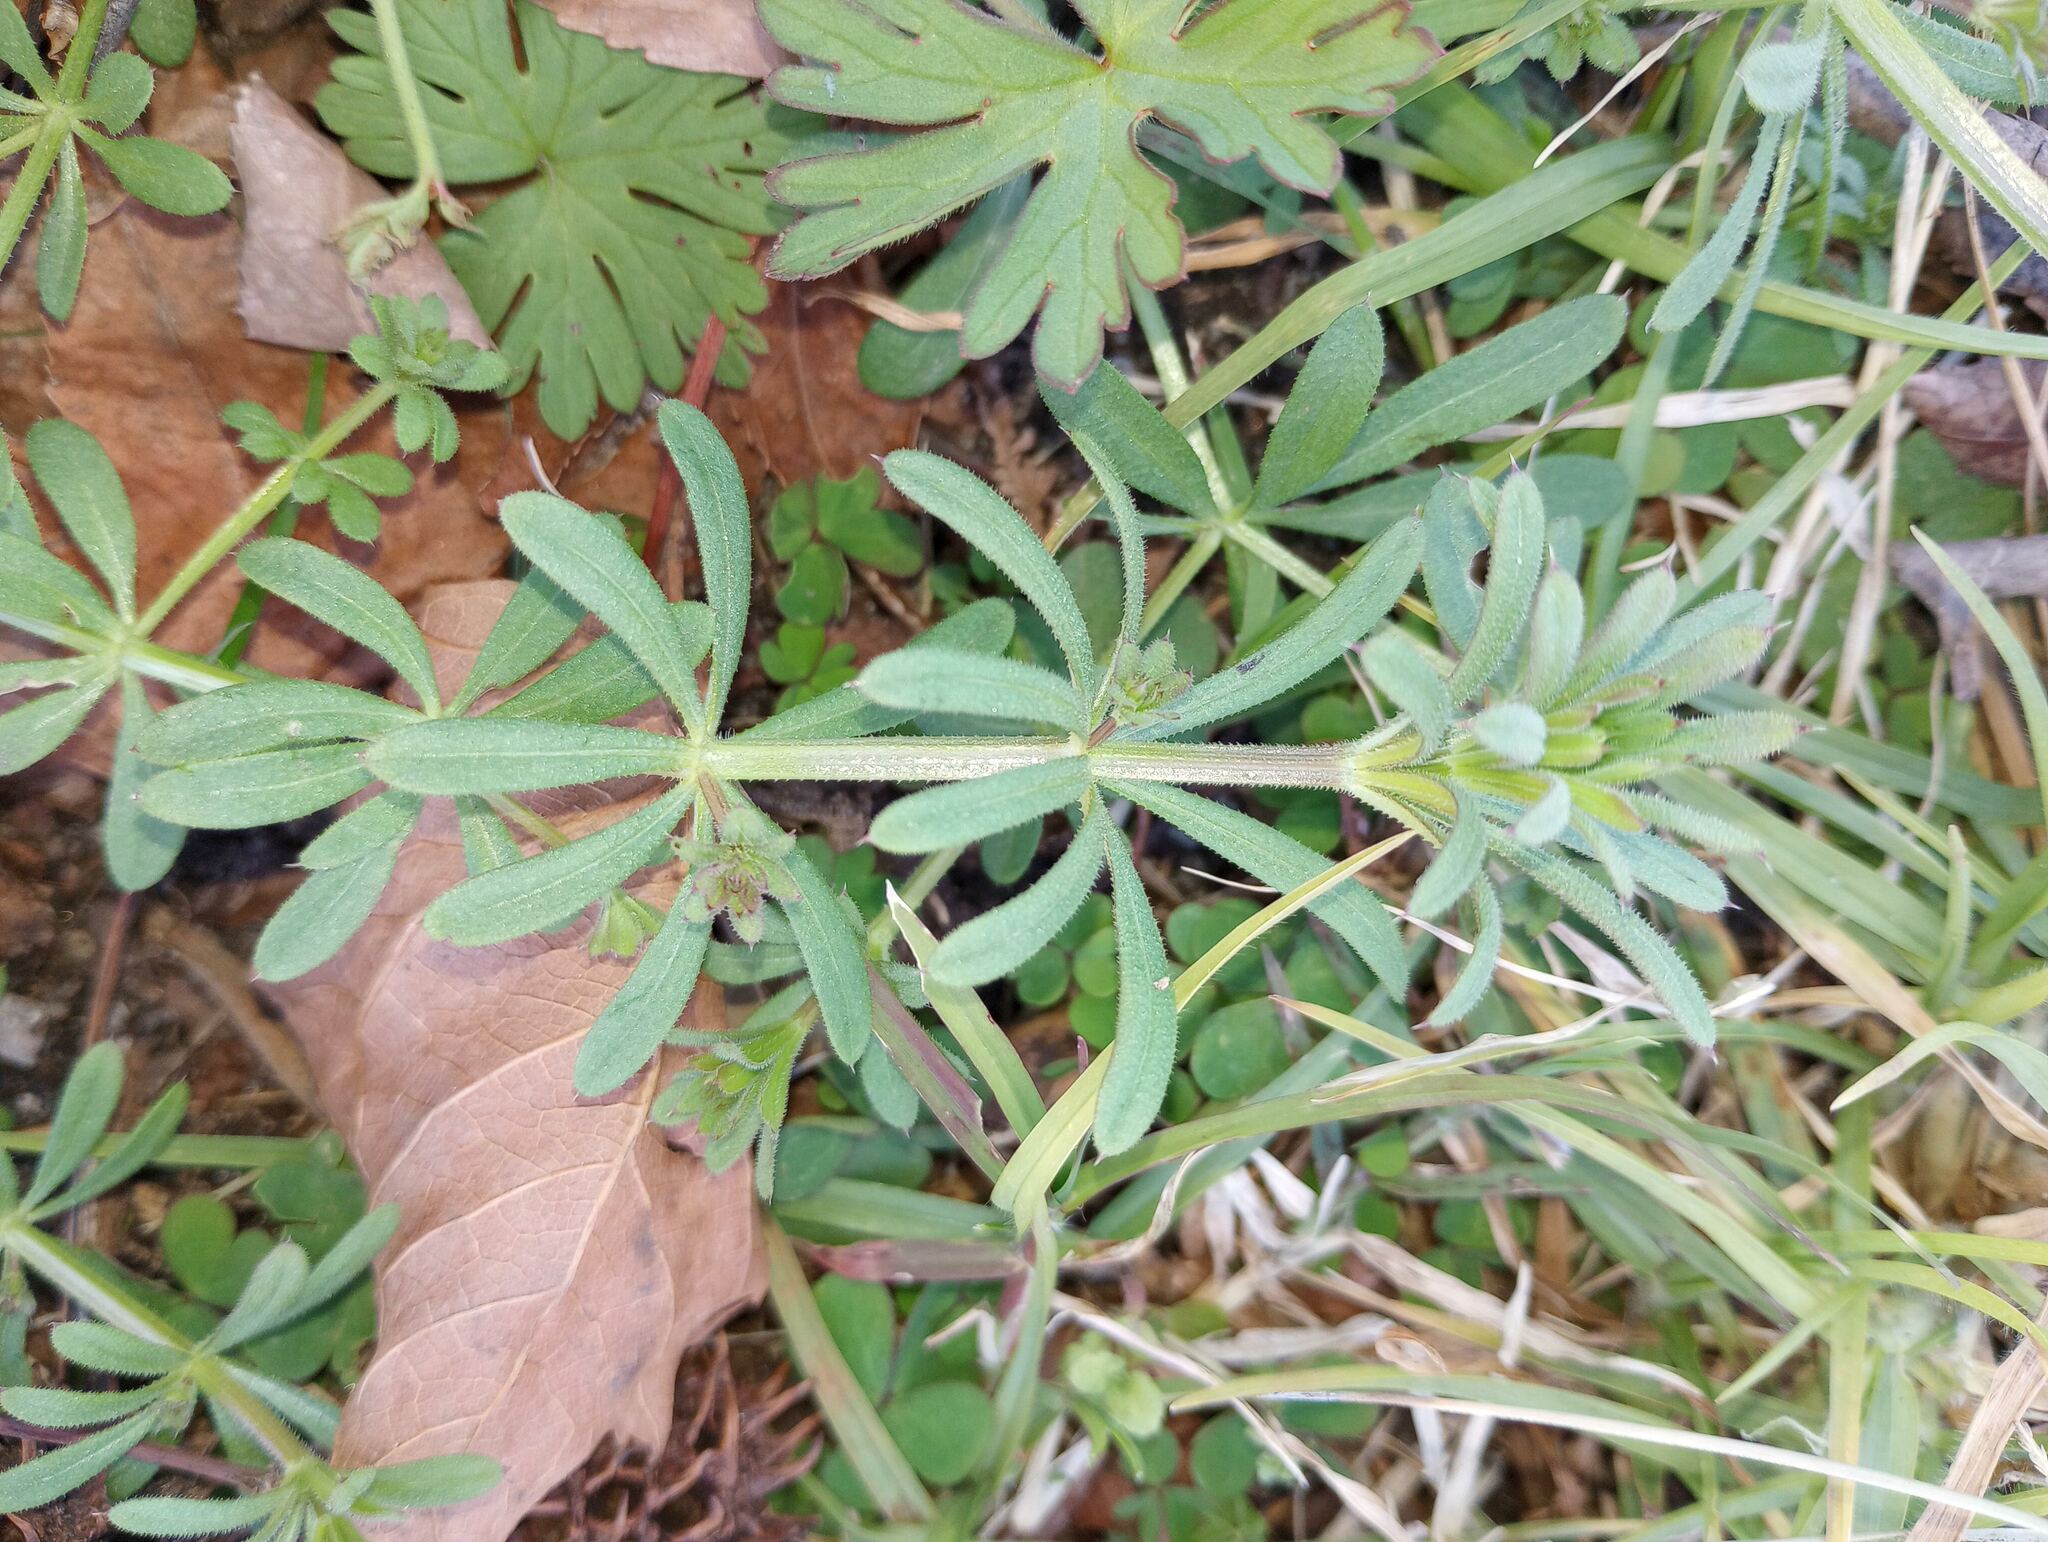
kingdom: Plantae
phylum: Tracheophyta
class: Magnoliopsida
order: Gentianales
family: Rubiaceae
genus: Galium
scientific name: Galium aparine
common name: Cleavers
